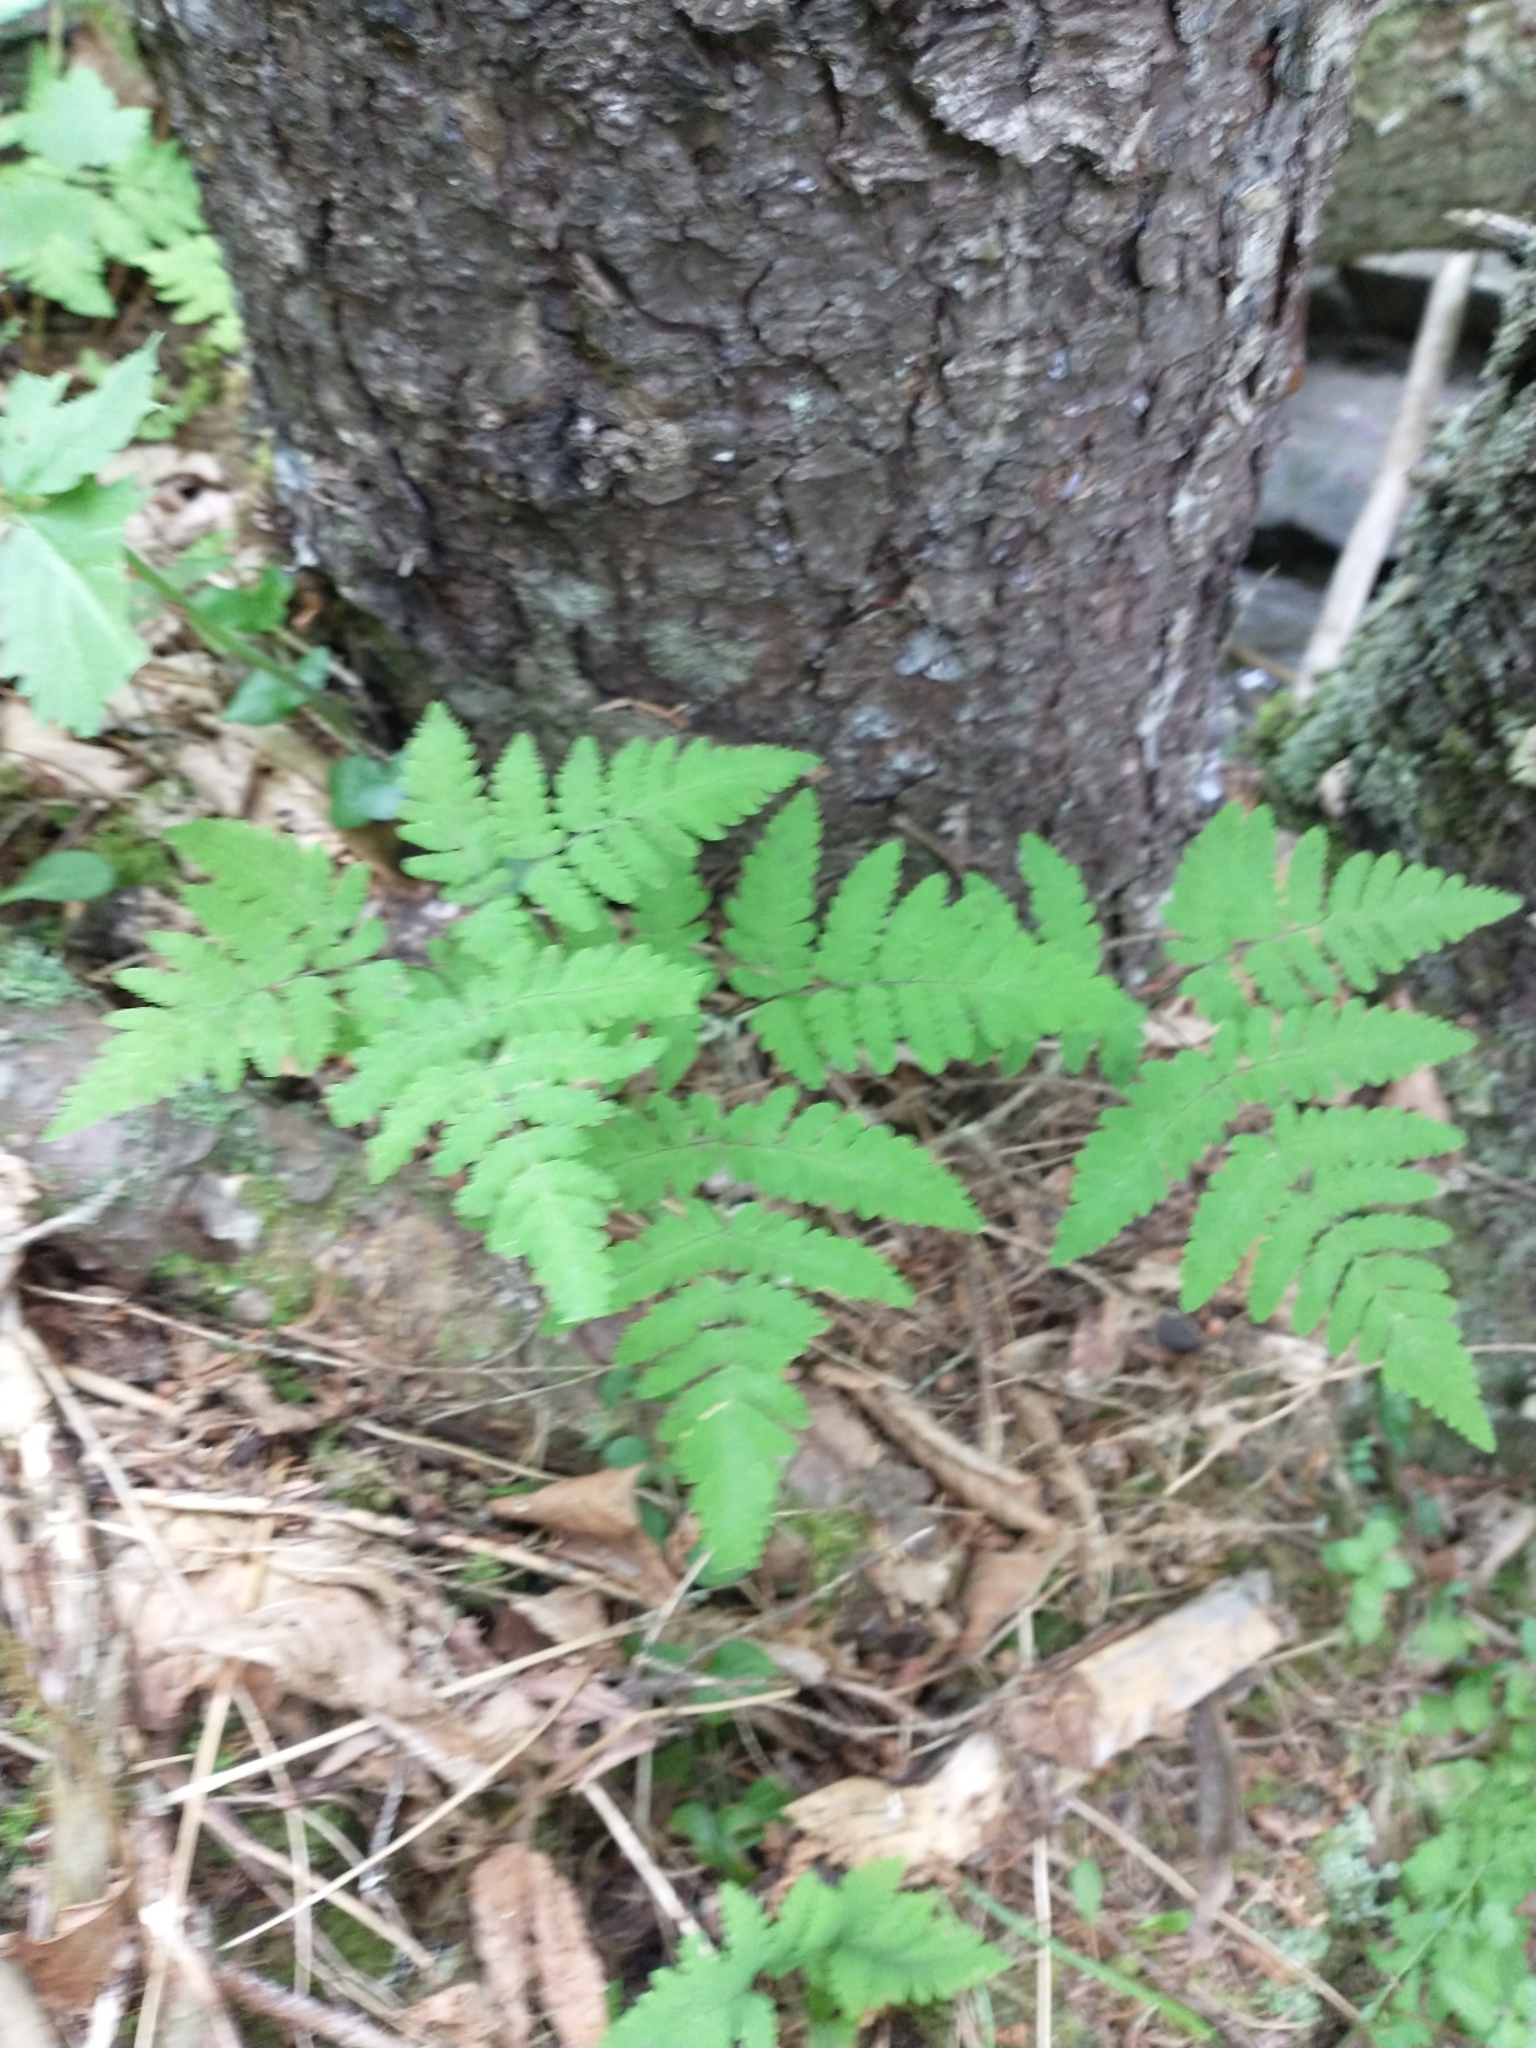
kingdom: Plantae
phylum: Tracheophyta
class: Polypodiopsida
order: Polypodiales
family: Cystopteridaceae
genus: Gymnocarpium
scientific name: Gymnocarpium dryopteris
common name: Oak fern
